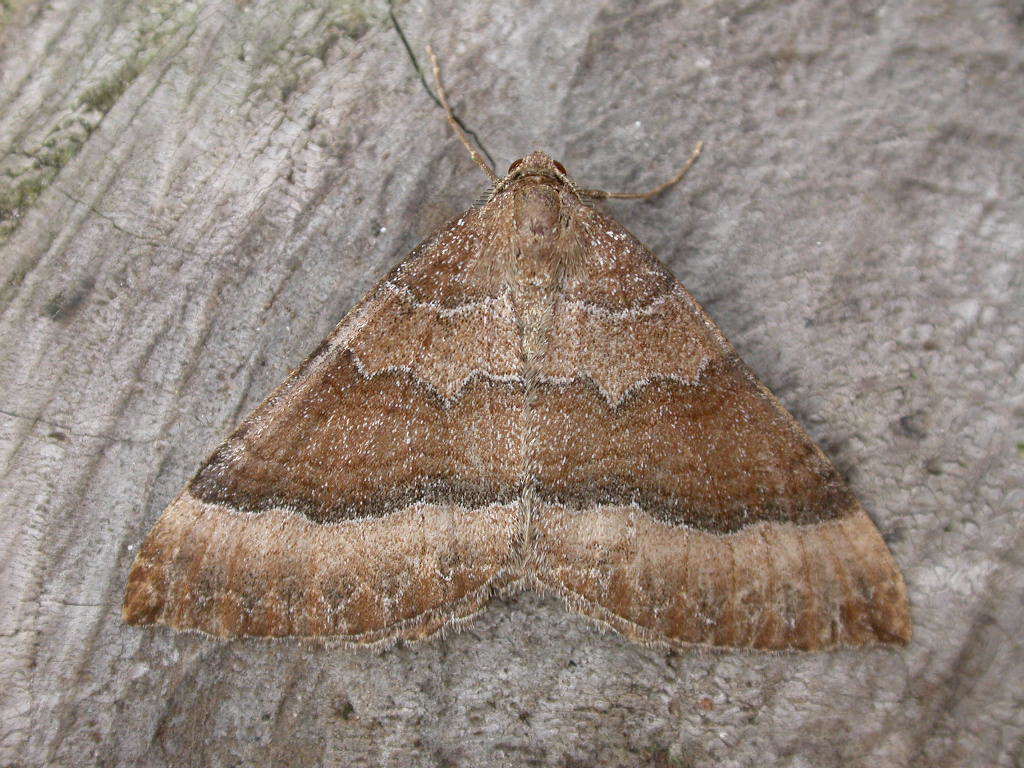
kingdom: Animalia
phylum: Arthropoda
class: Insecta
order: Lepidoptera
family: Geometridae
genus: Larentia
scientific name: Larentia clavaria
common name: Mallow
